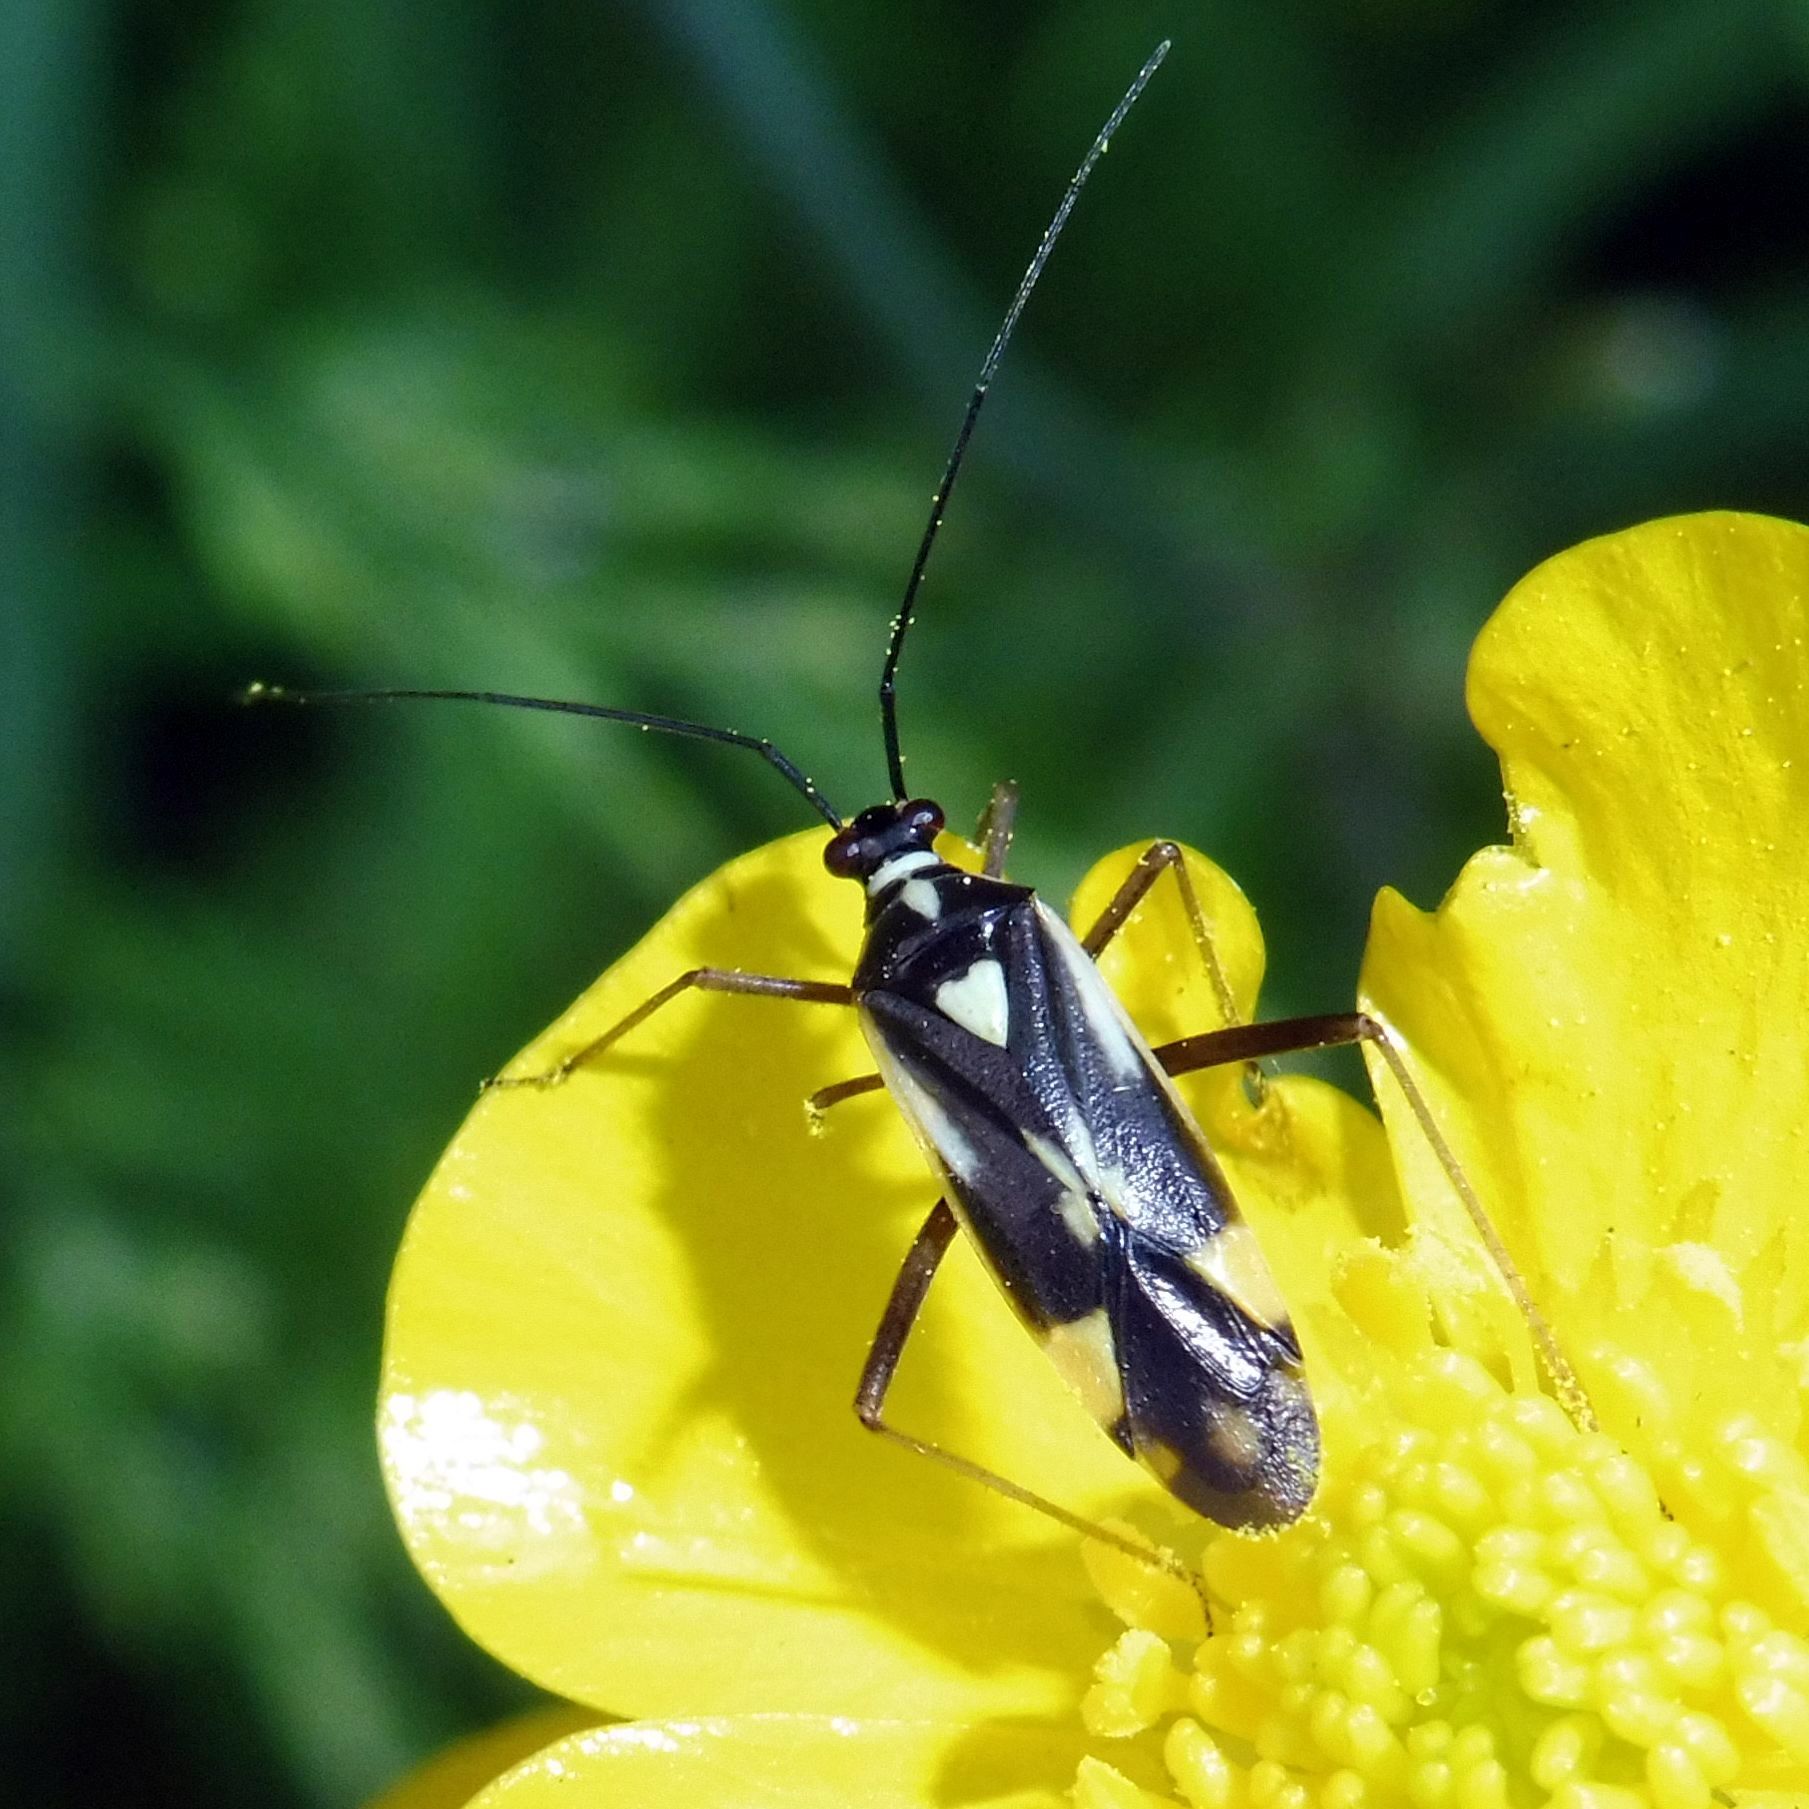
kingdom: Animalia
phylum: Arthropoda
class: Insecta
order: Hemiptera
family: Miridae
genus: Grypocoris
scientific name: Grypocoris stysi
